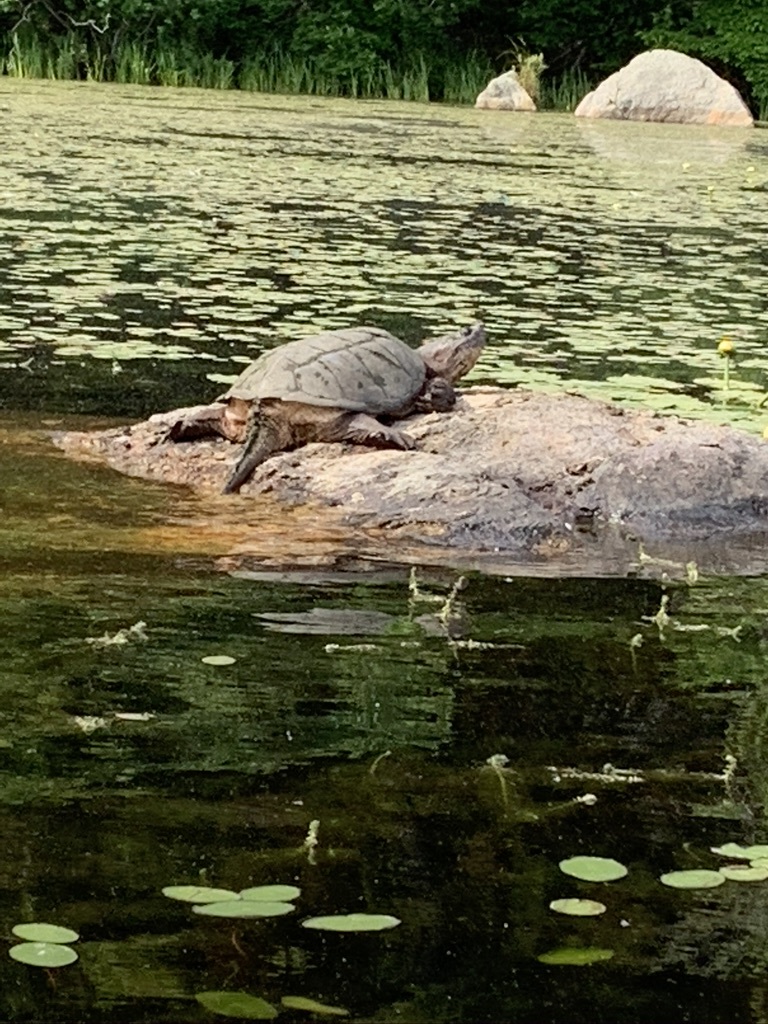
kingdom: Animalia
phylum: Chordata
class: Testudines
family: Chelydridae
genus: Chelydra
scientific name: Chelydra serpentina
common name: Common snapping turtle
